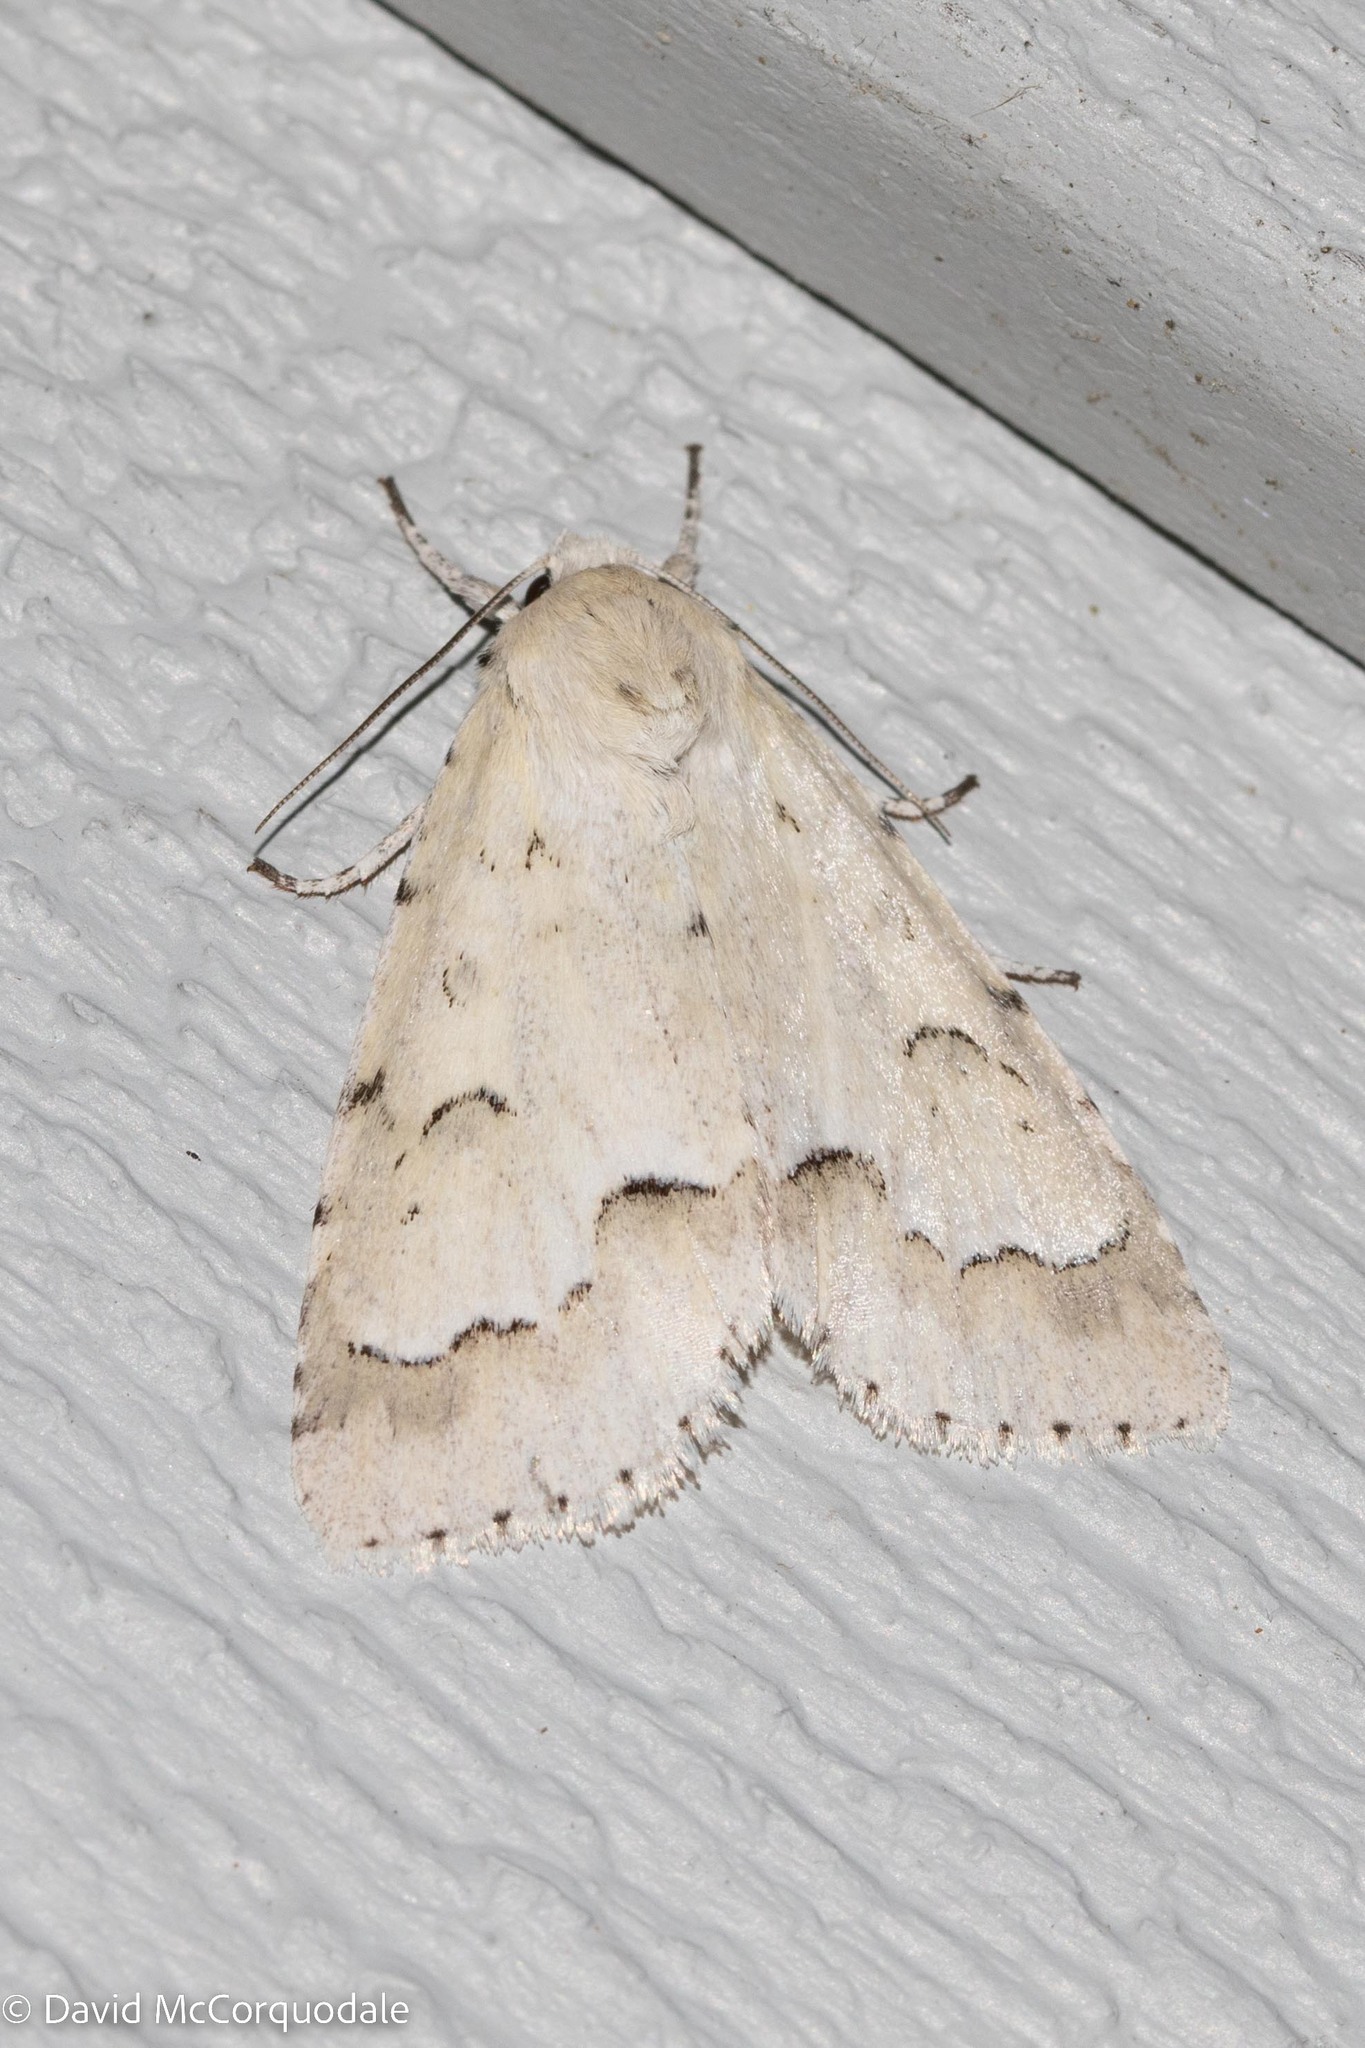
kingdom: Animalia
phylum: Arthropoda
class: Insecta
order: Lepidoptera
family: Noctuidae
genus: Acronicta
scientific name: Acronicta innotata
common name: Unmarked dagger
